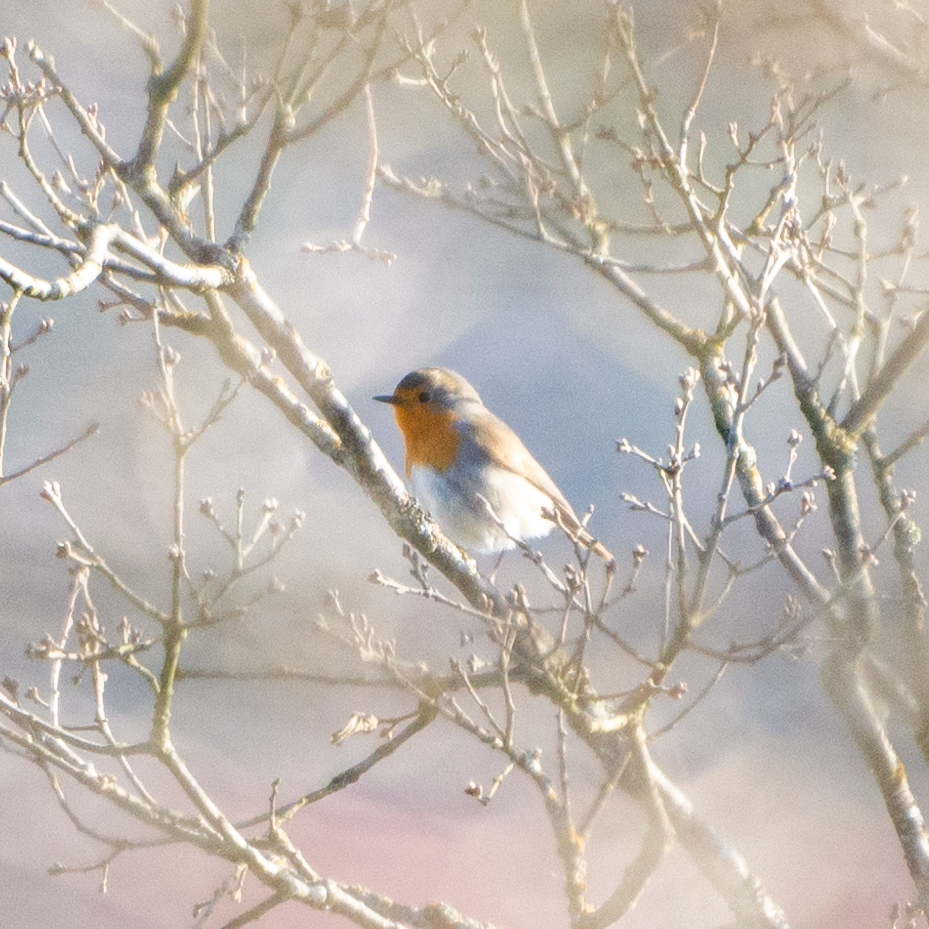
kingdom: Animalia
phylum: Chordata
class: Aves
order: Passeriformes
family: Muscicapidae
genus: Erithacus
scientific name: Erithacus rubecula
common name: European robin
